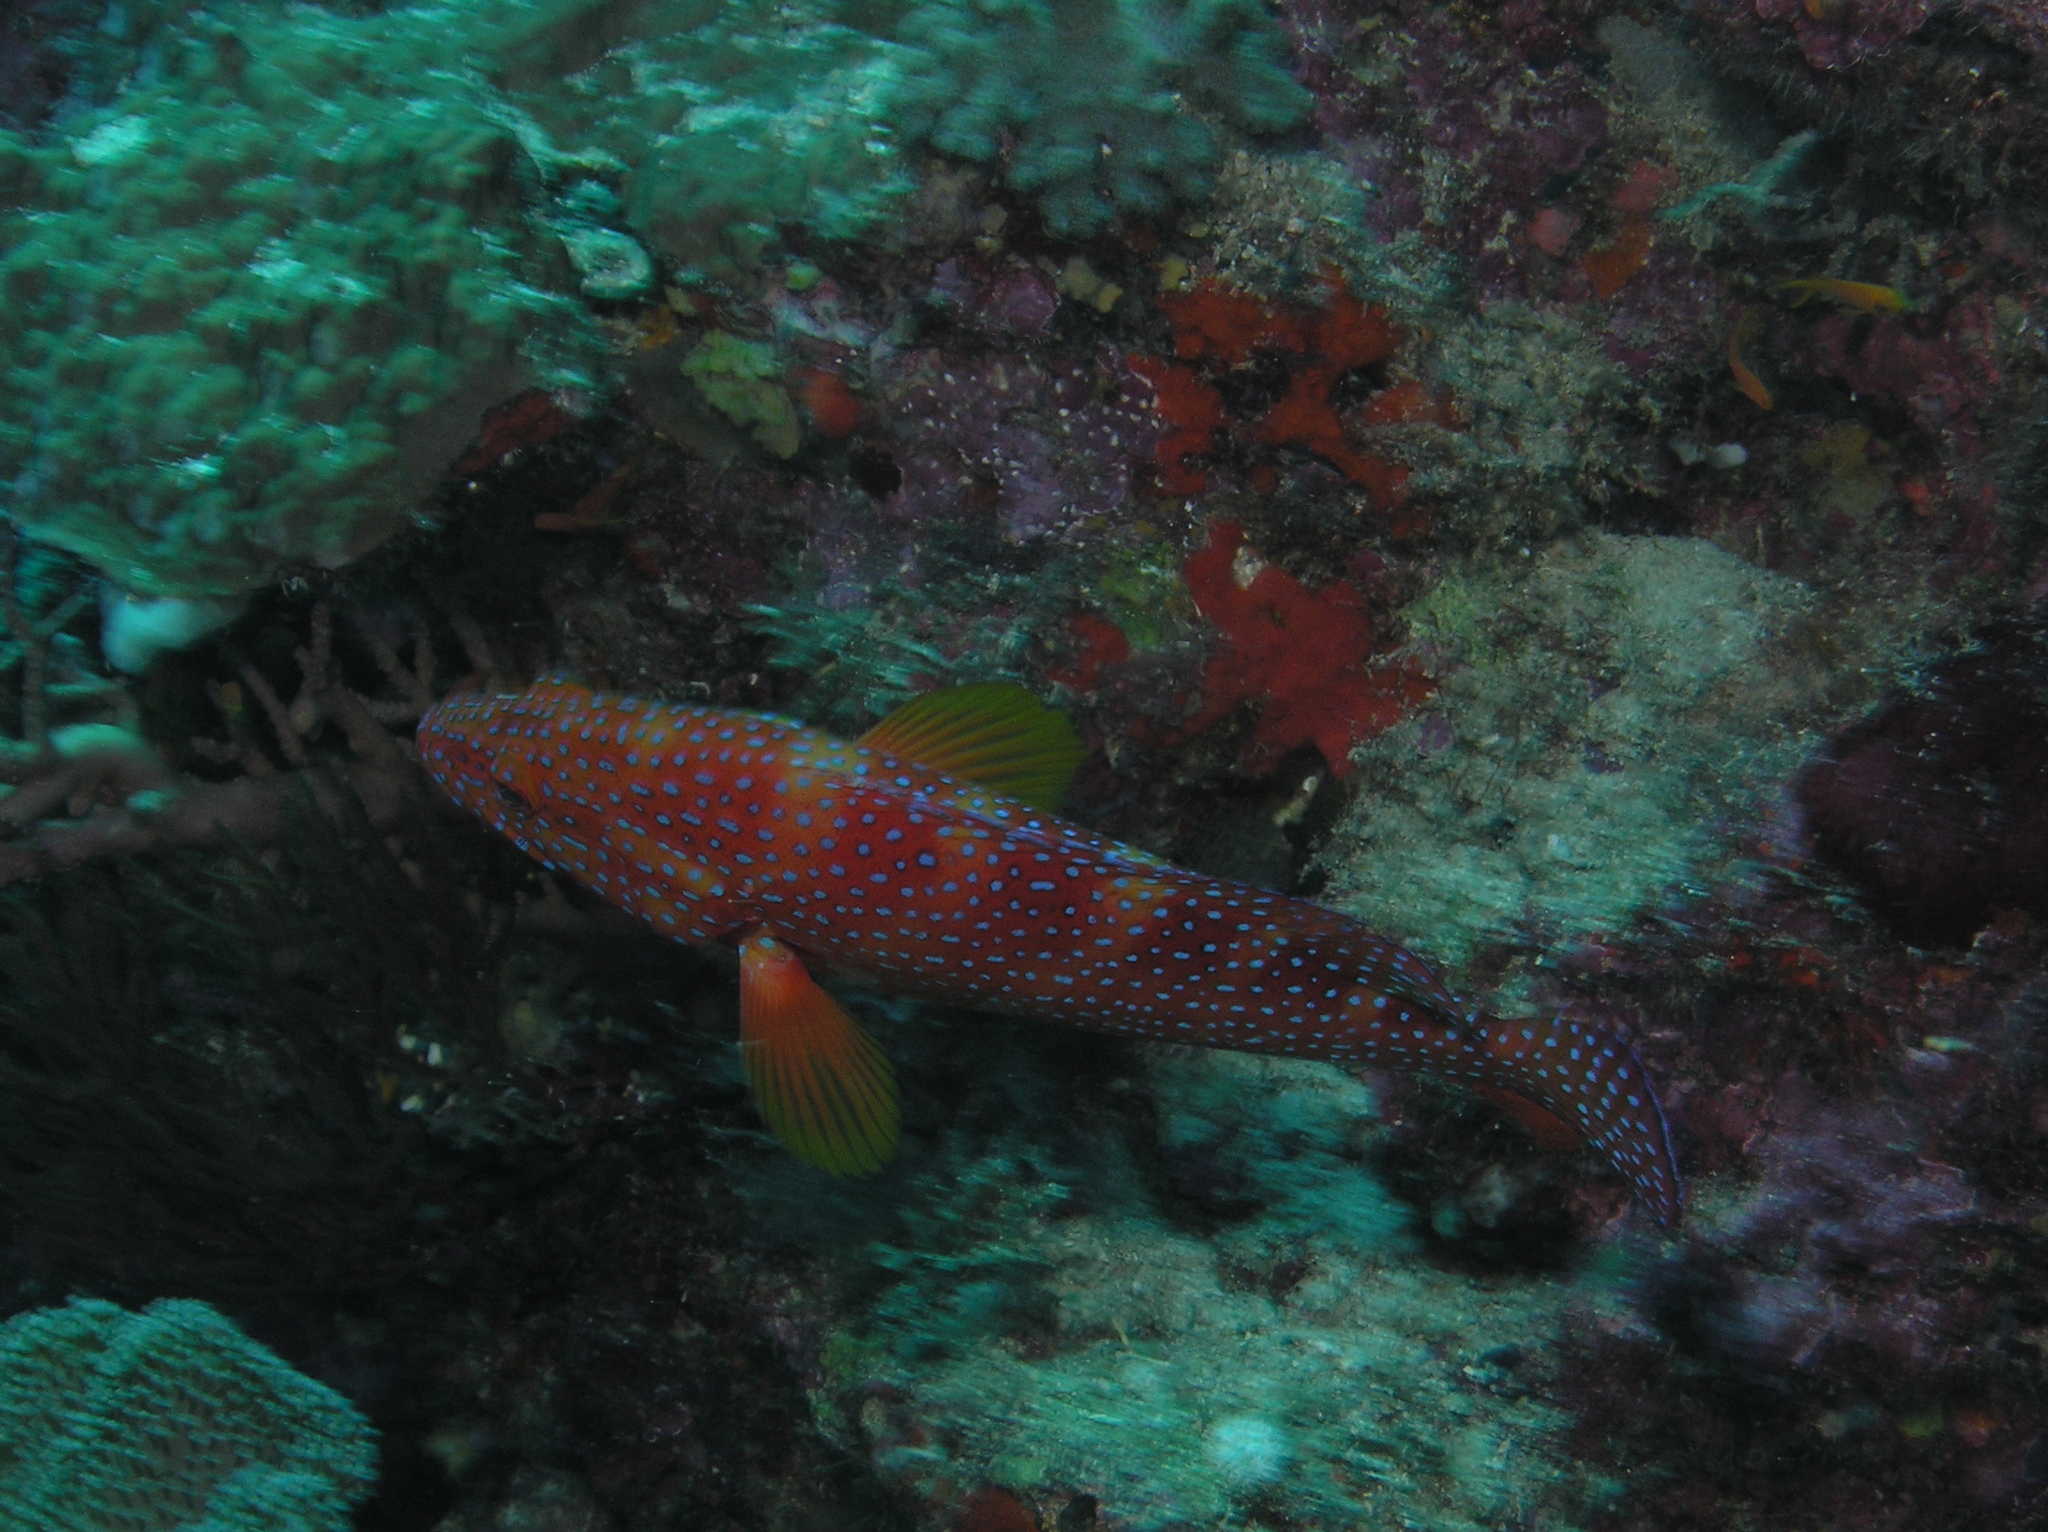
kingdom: Animalia
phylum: Chordata
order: Perciformes
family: Serranidae
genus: Cephalopholis
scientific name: Cephalopholis miniata
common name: Coral hind
